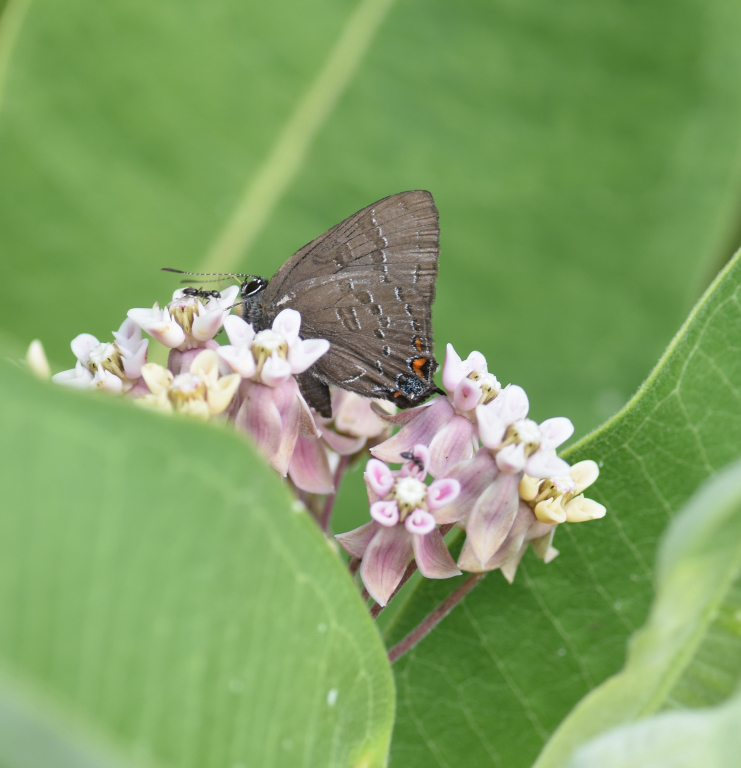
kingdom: Animalia
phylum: Arthropoda
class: Insecta
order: Lepidoptera
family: Lycaenidae
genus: Satyrium
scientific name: Satyrium calanus
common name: Banded hairstreak
